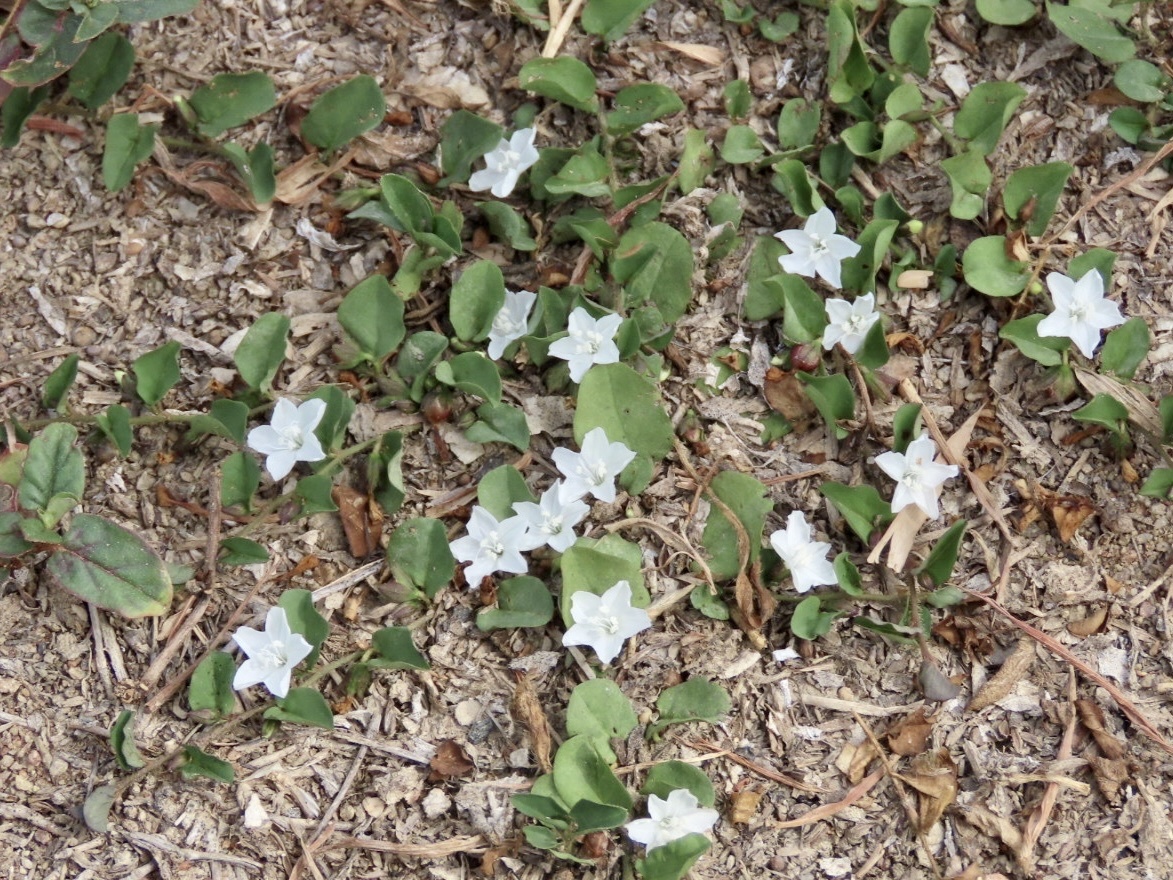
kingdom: Plantae
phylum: Tracheophyta
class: Magnoliopsida
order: Solanales
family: Convolvulaceae
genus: Evolvulus
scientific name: Evolvulus nummularius
